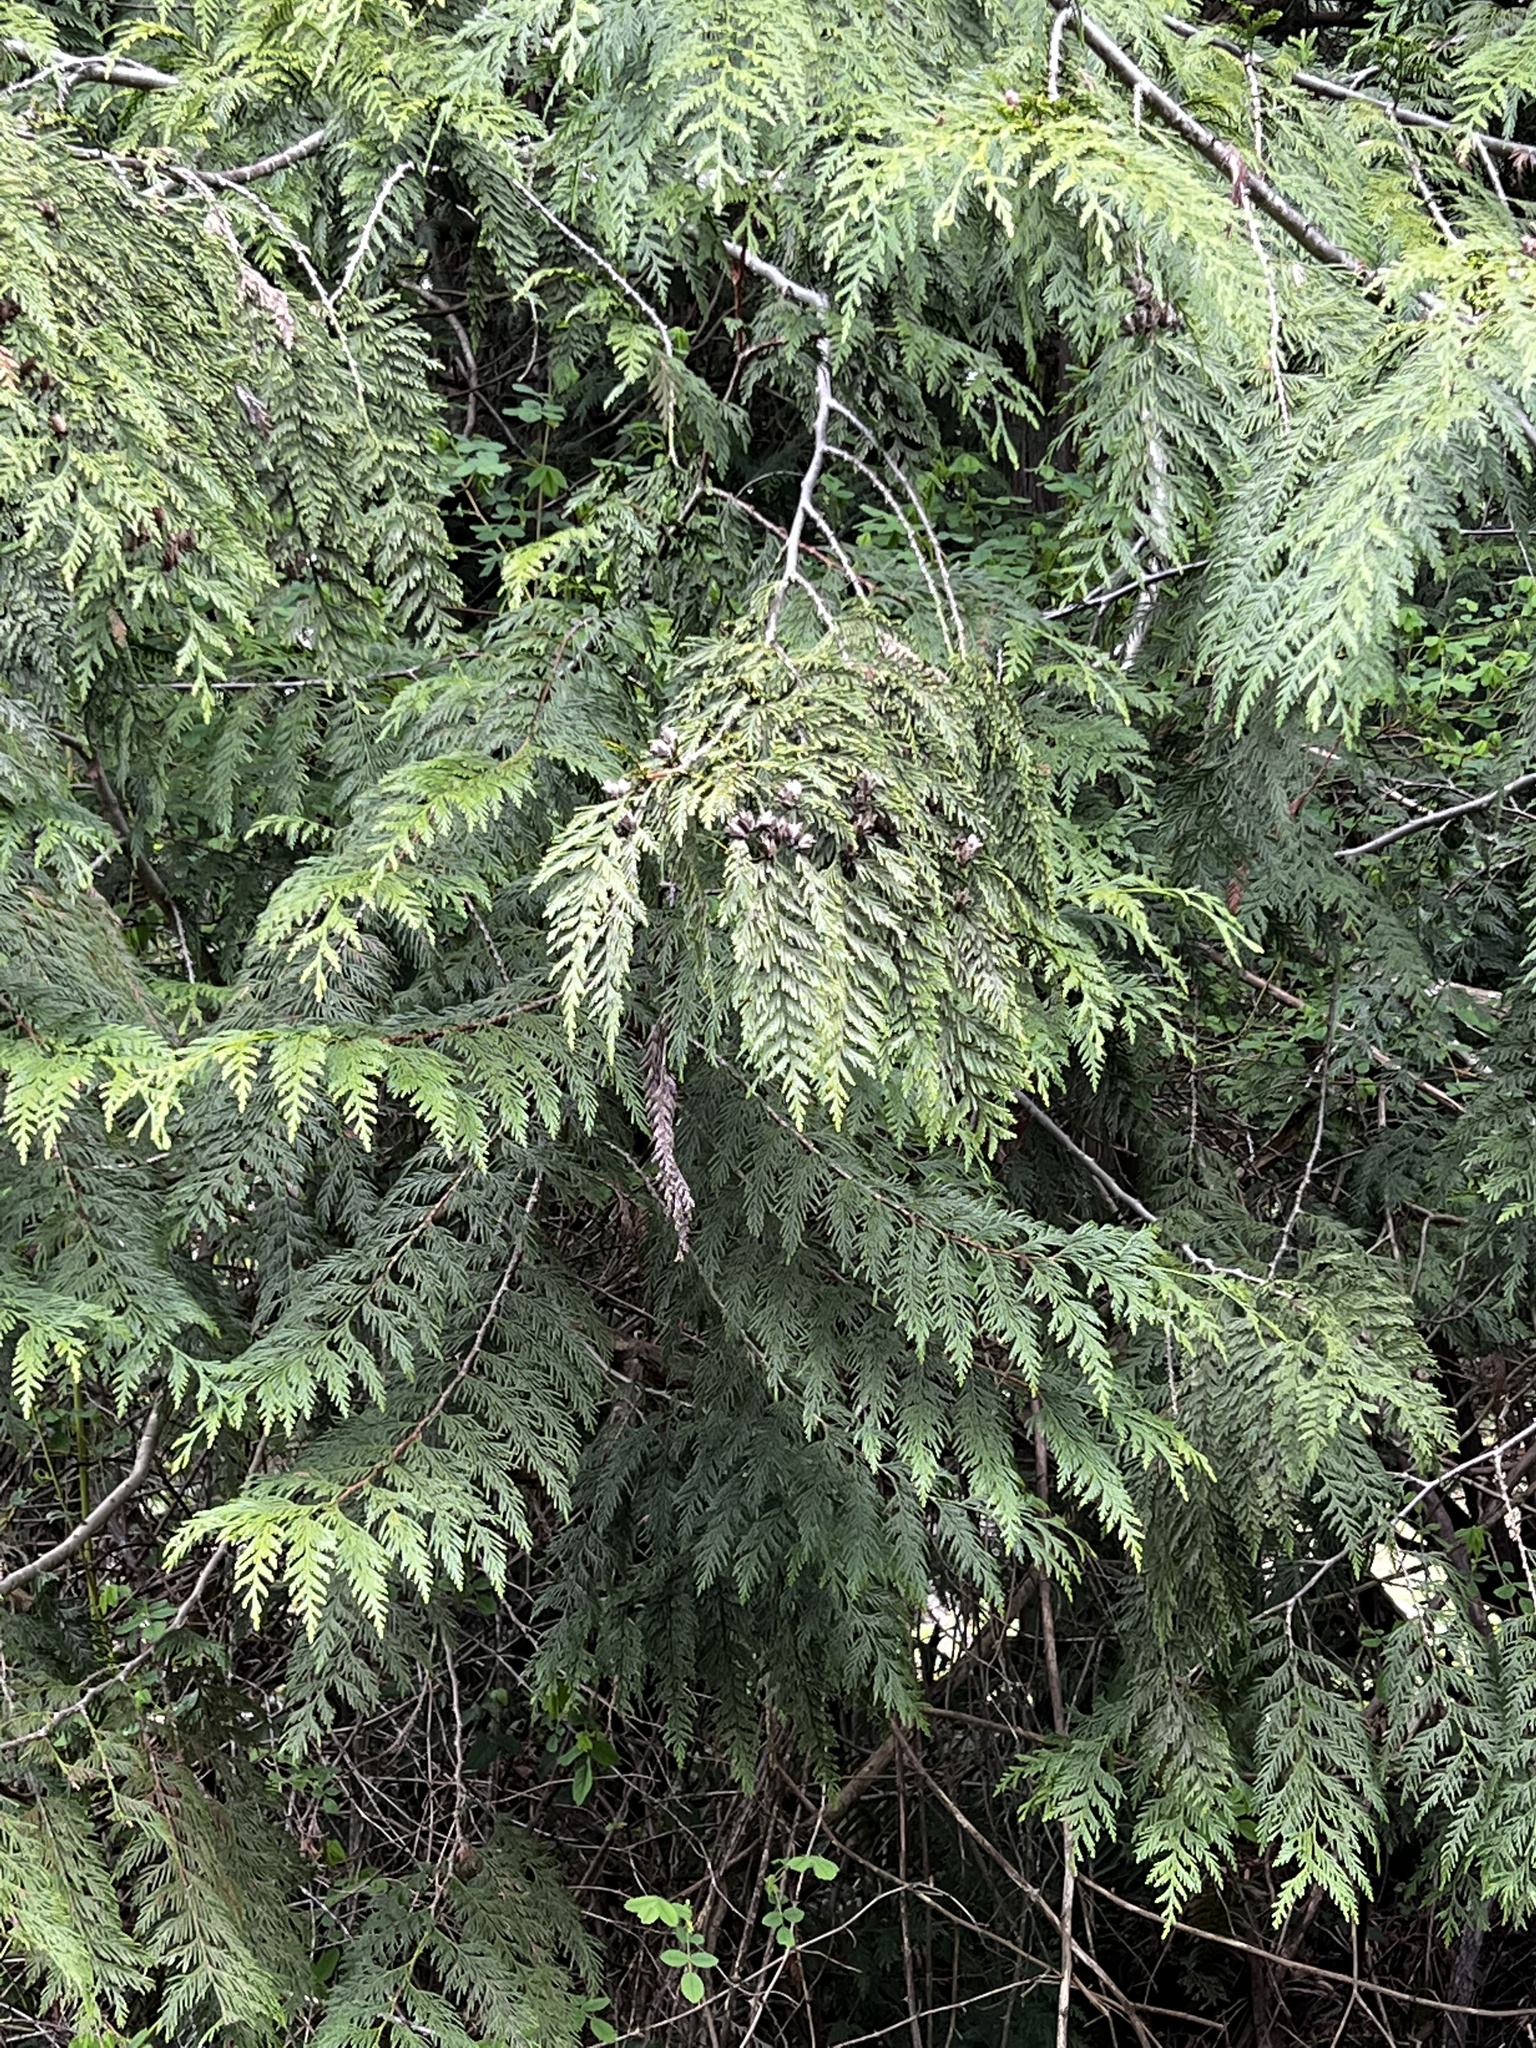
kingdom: Plantae
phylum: Tracheophyta
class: Pinopsida
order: Pinales
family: Cupressaceae
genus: Thuja
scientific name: Thuja plicata
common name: Western red-cedar
